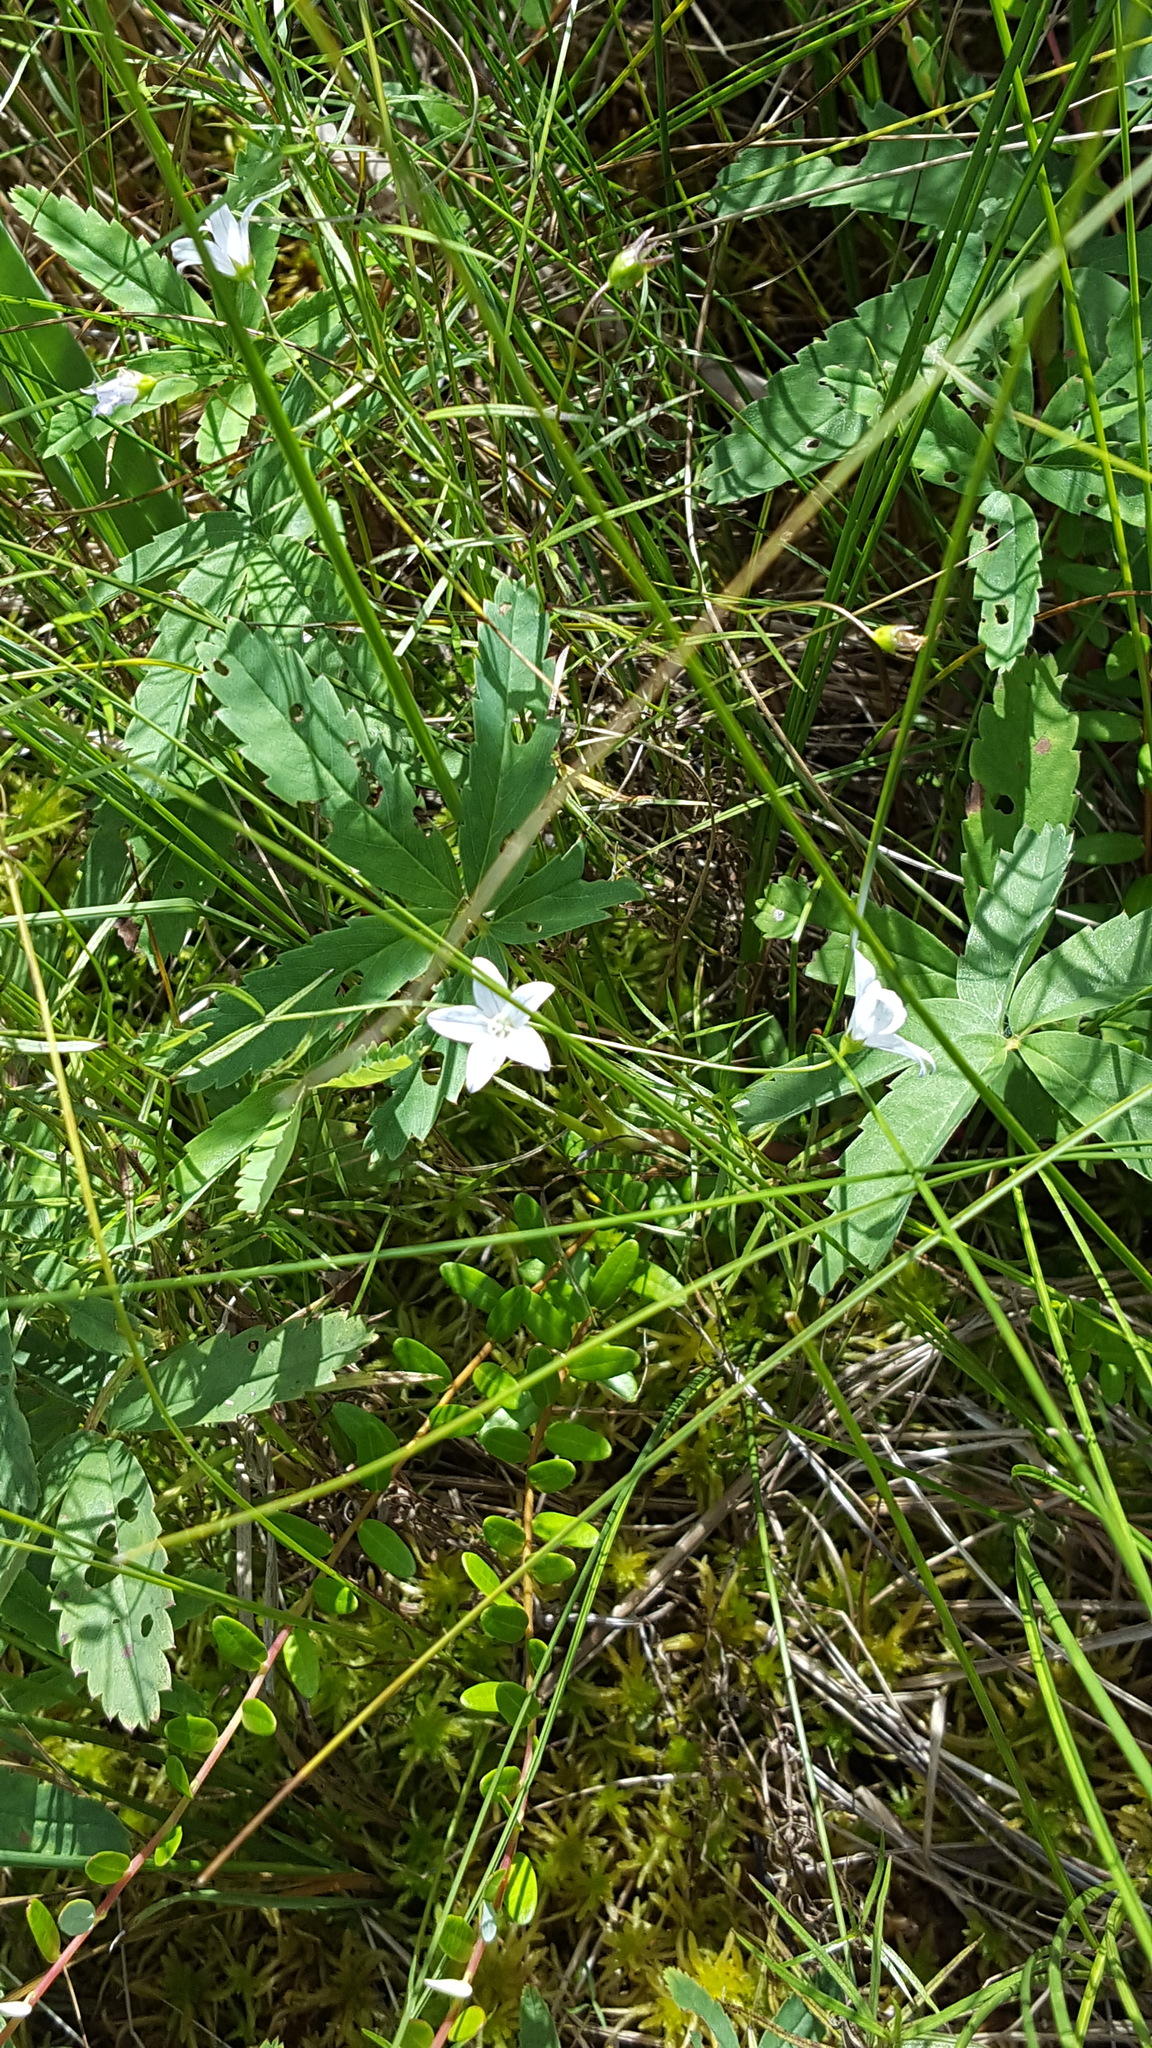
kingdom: Plantae
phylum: Tracheophyta
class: Magnoliopsida
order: Asterales
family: Campanulaceae
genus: Palustricodon
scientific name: Palustricodon aparinoides
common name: Bedstraw bellflower
